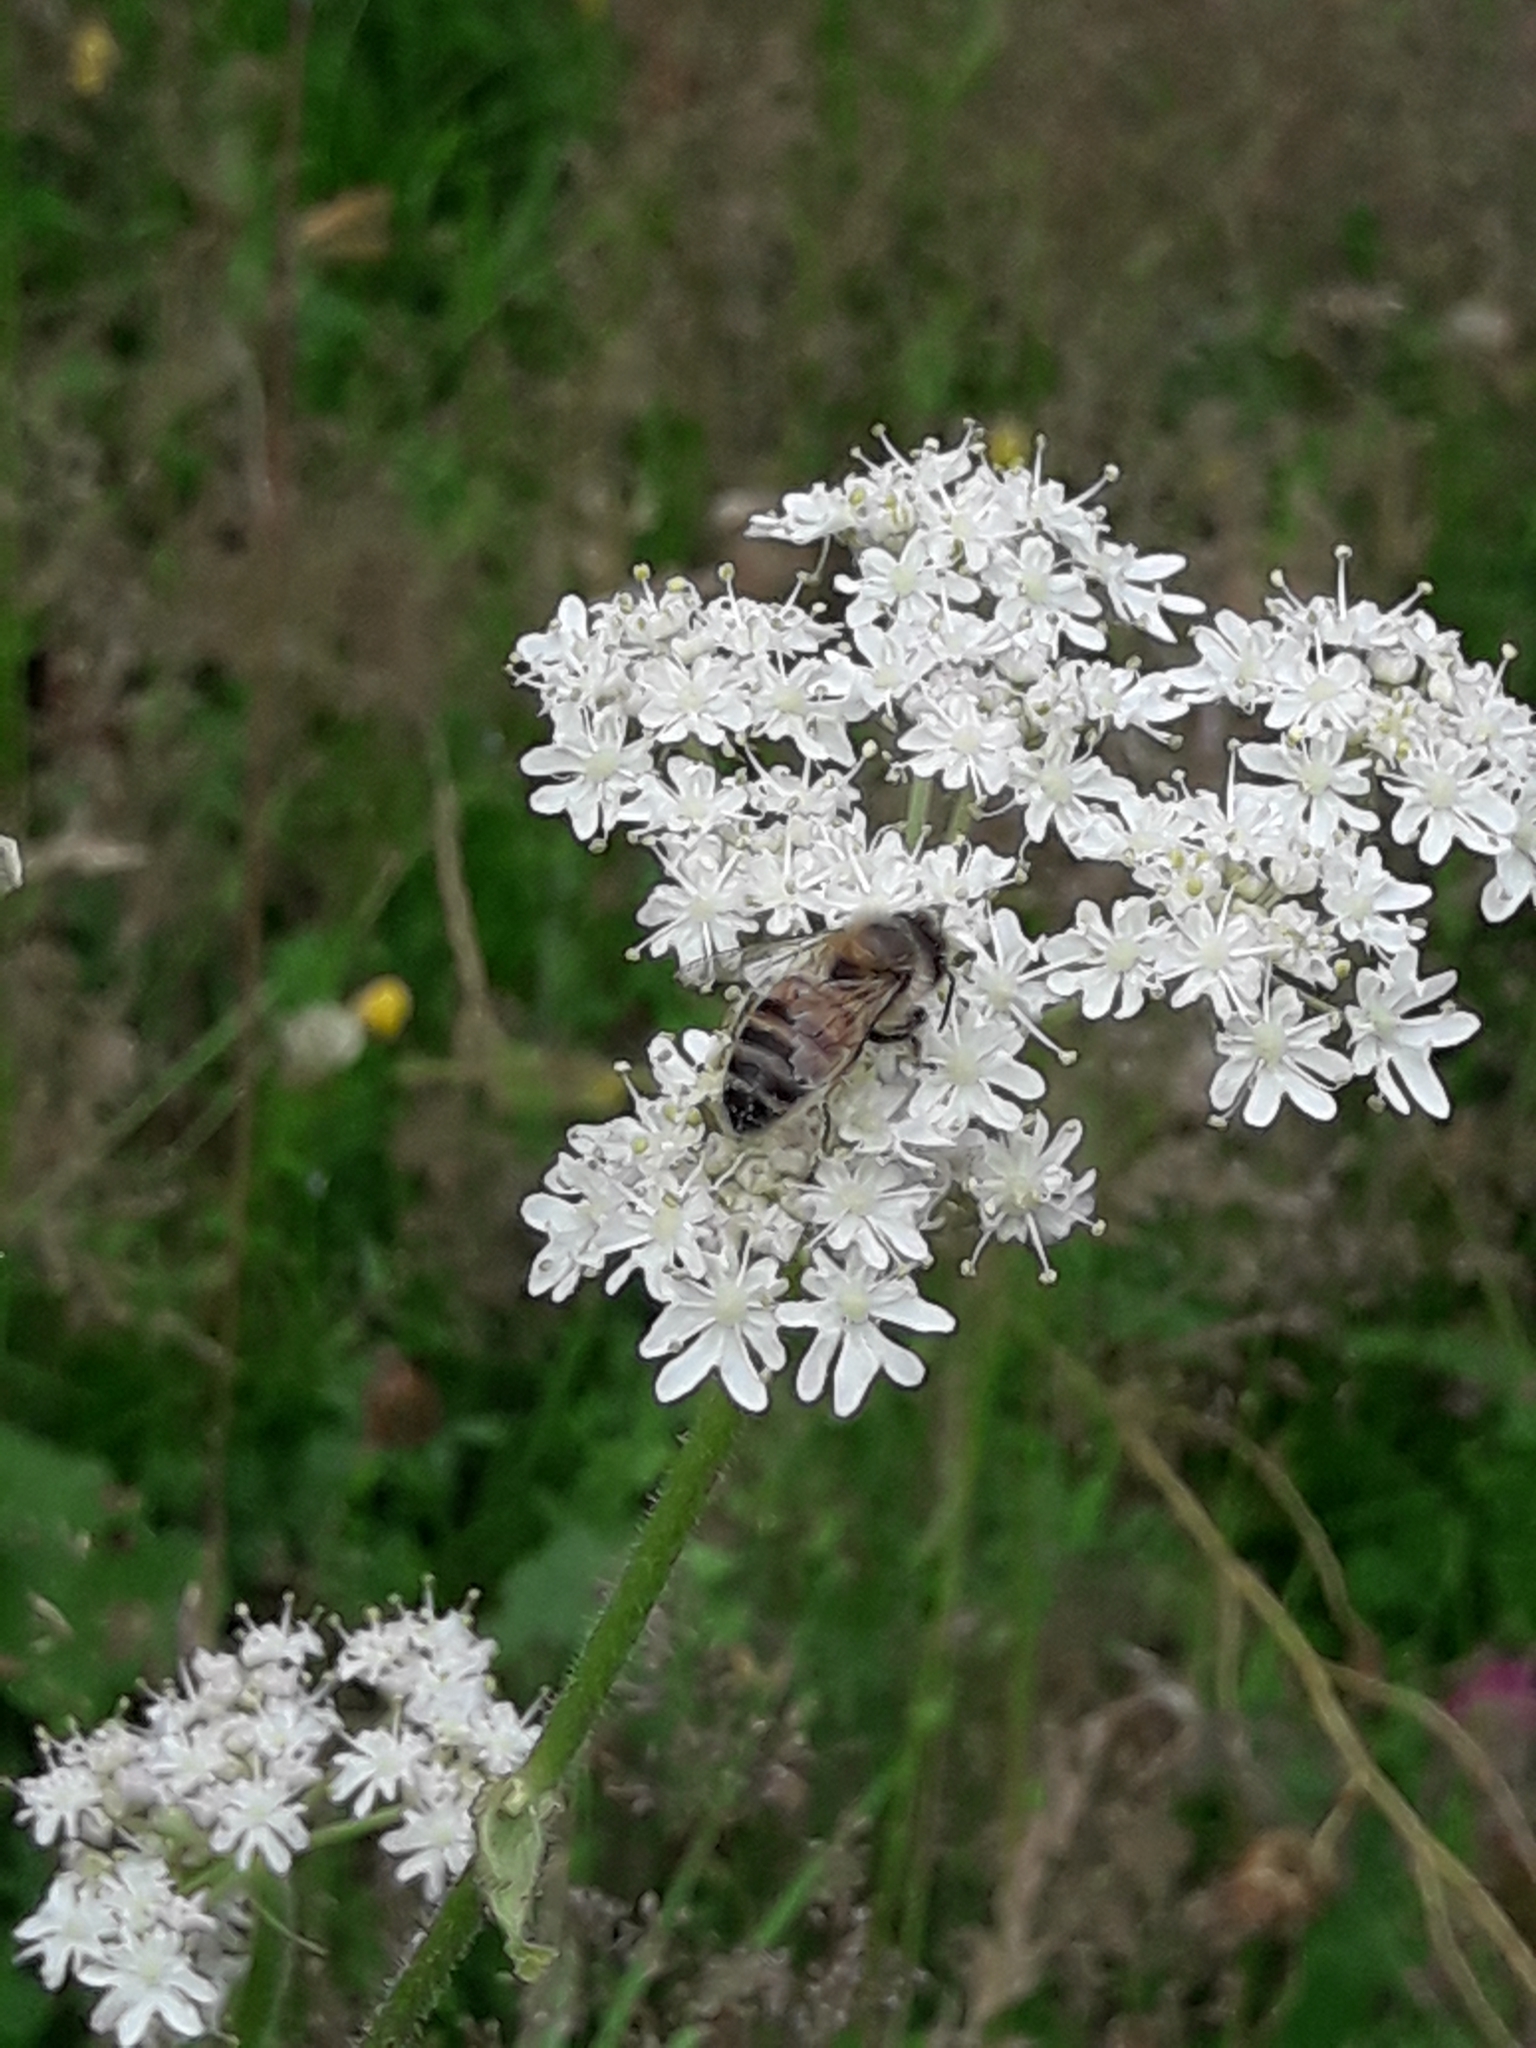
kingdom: Animalia
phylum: Arthropoda
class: Insecta
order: Hymenoptera
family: Apidae
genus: Apis
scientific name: Apis mellifera
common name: Honey bee
